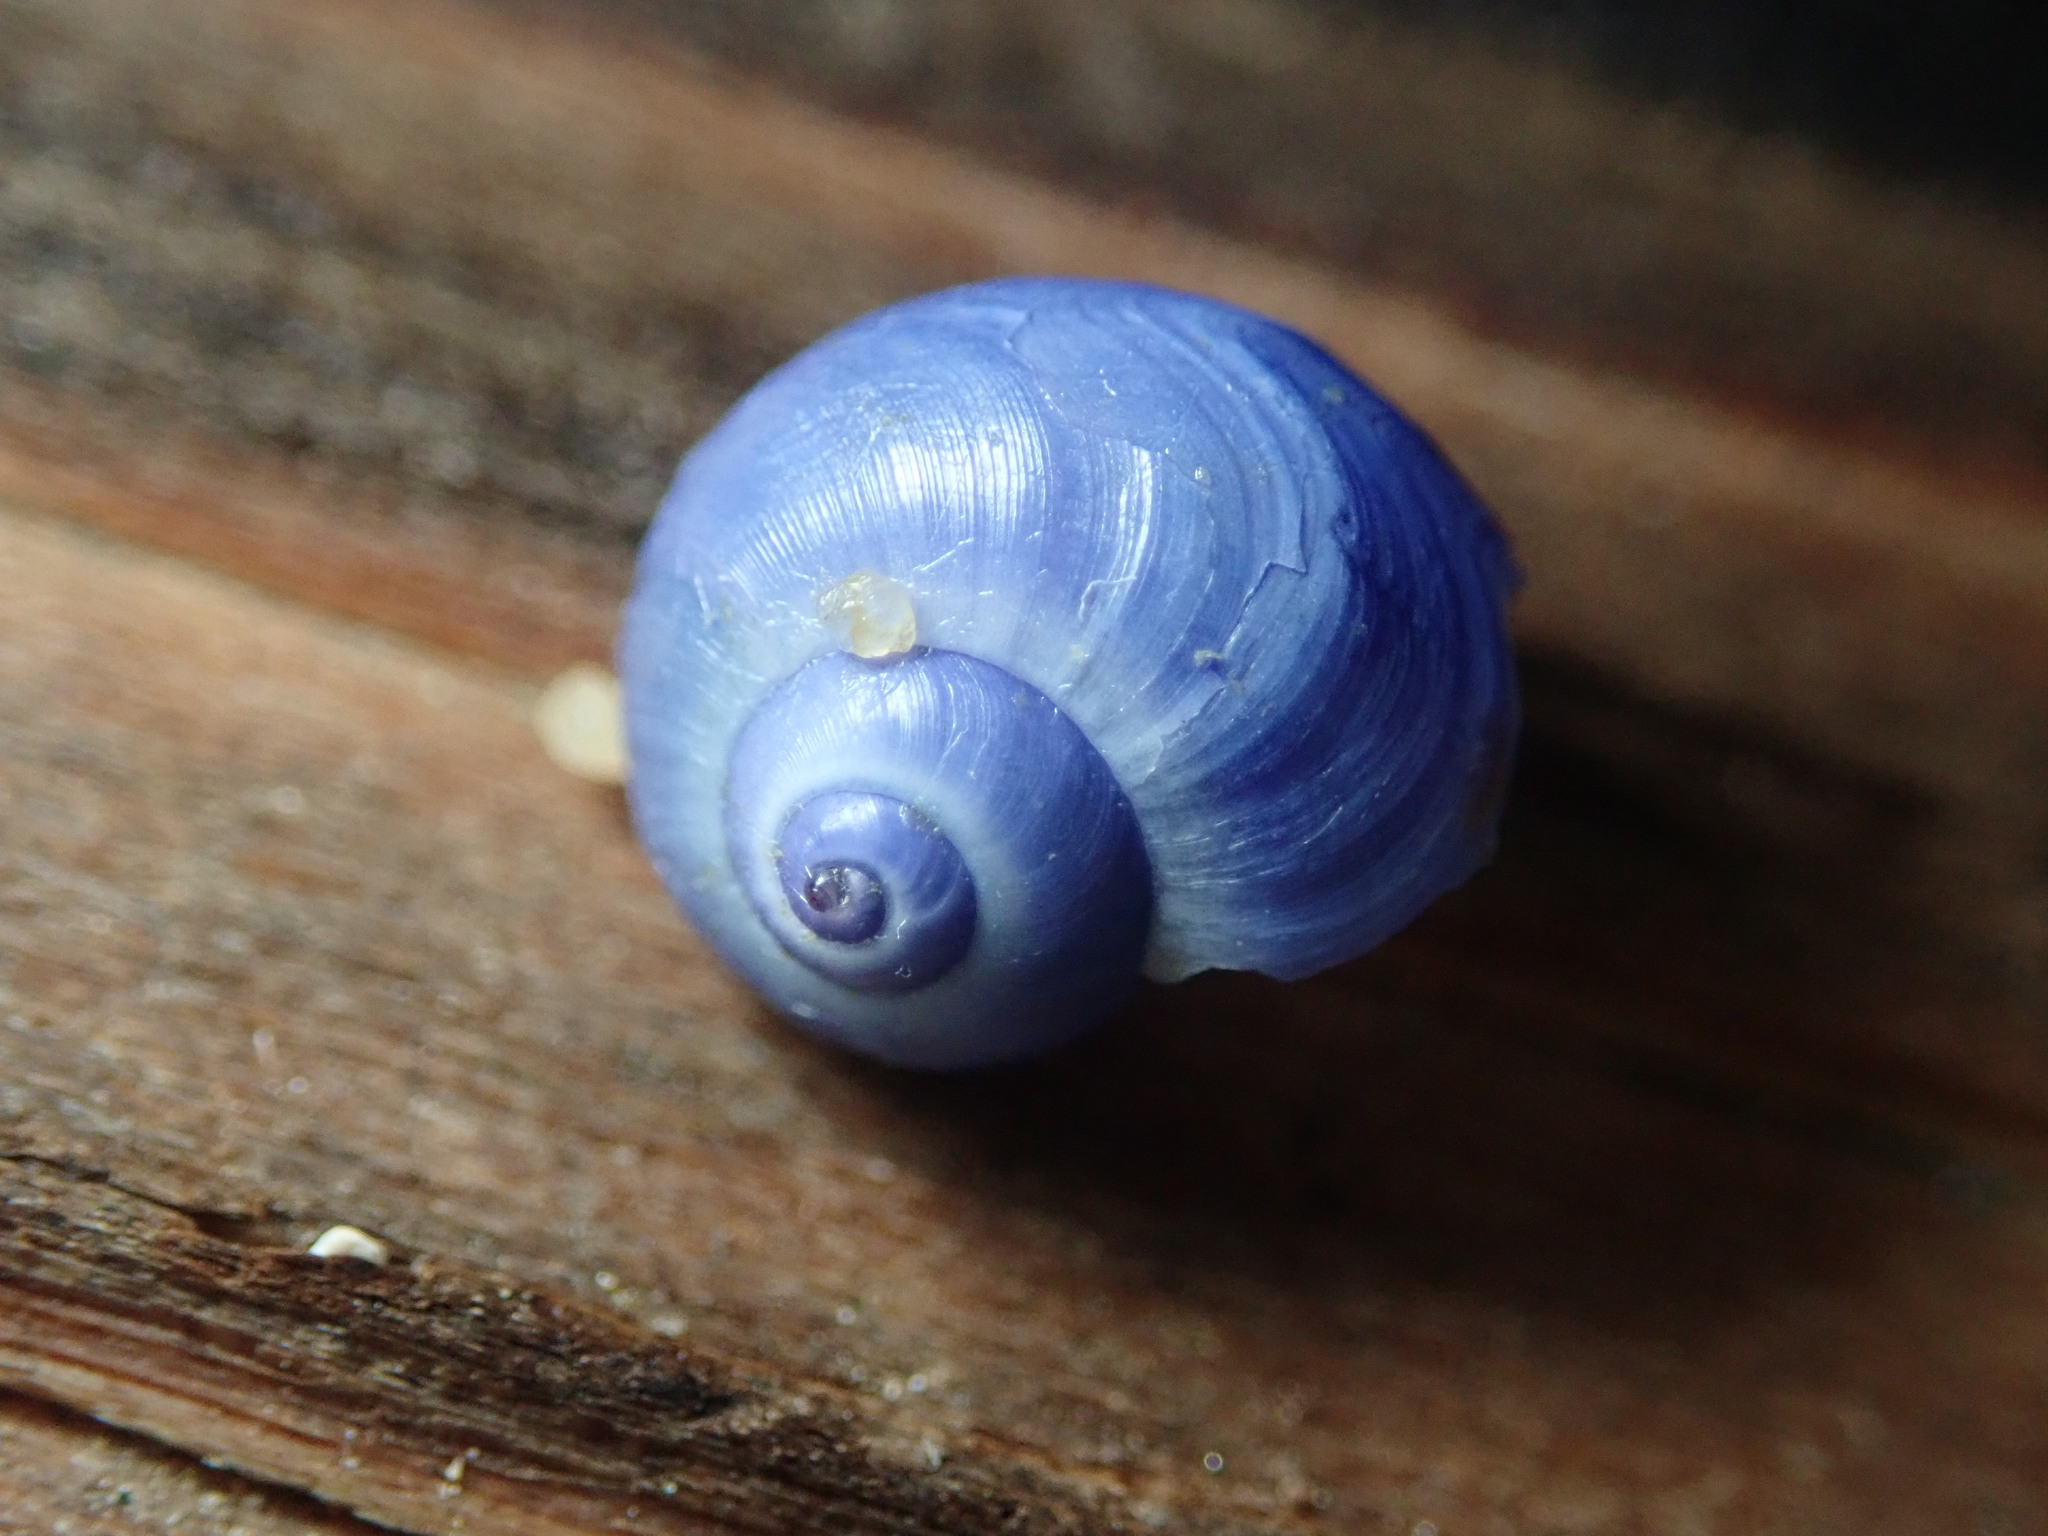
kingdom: Animalia
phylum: Mollusca
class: Gastropoda
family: Epitoniidae
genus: Janthina
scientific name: Janthina umbilicata
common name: Elongate janthina
